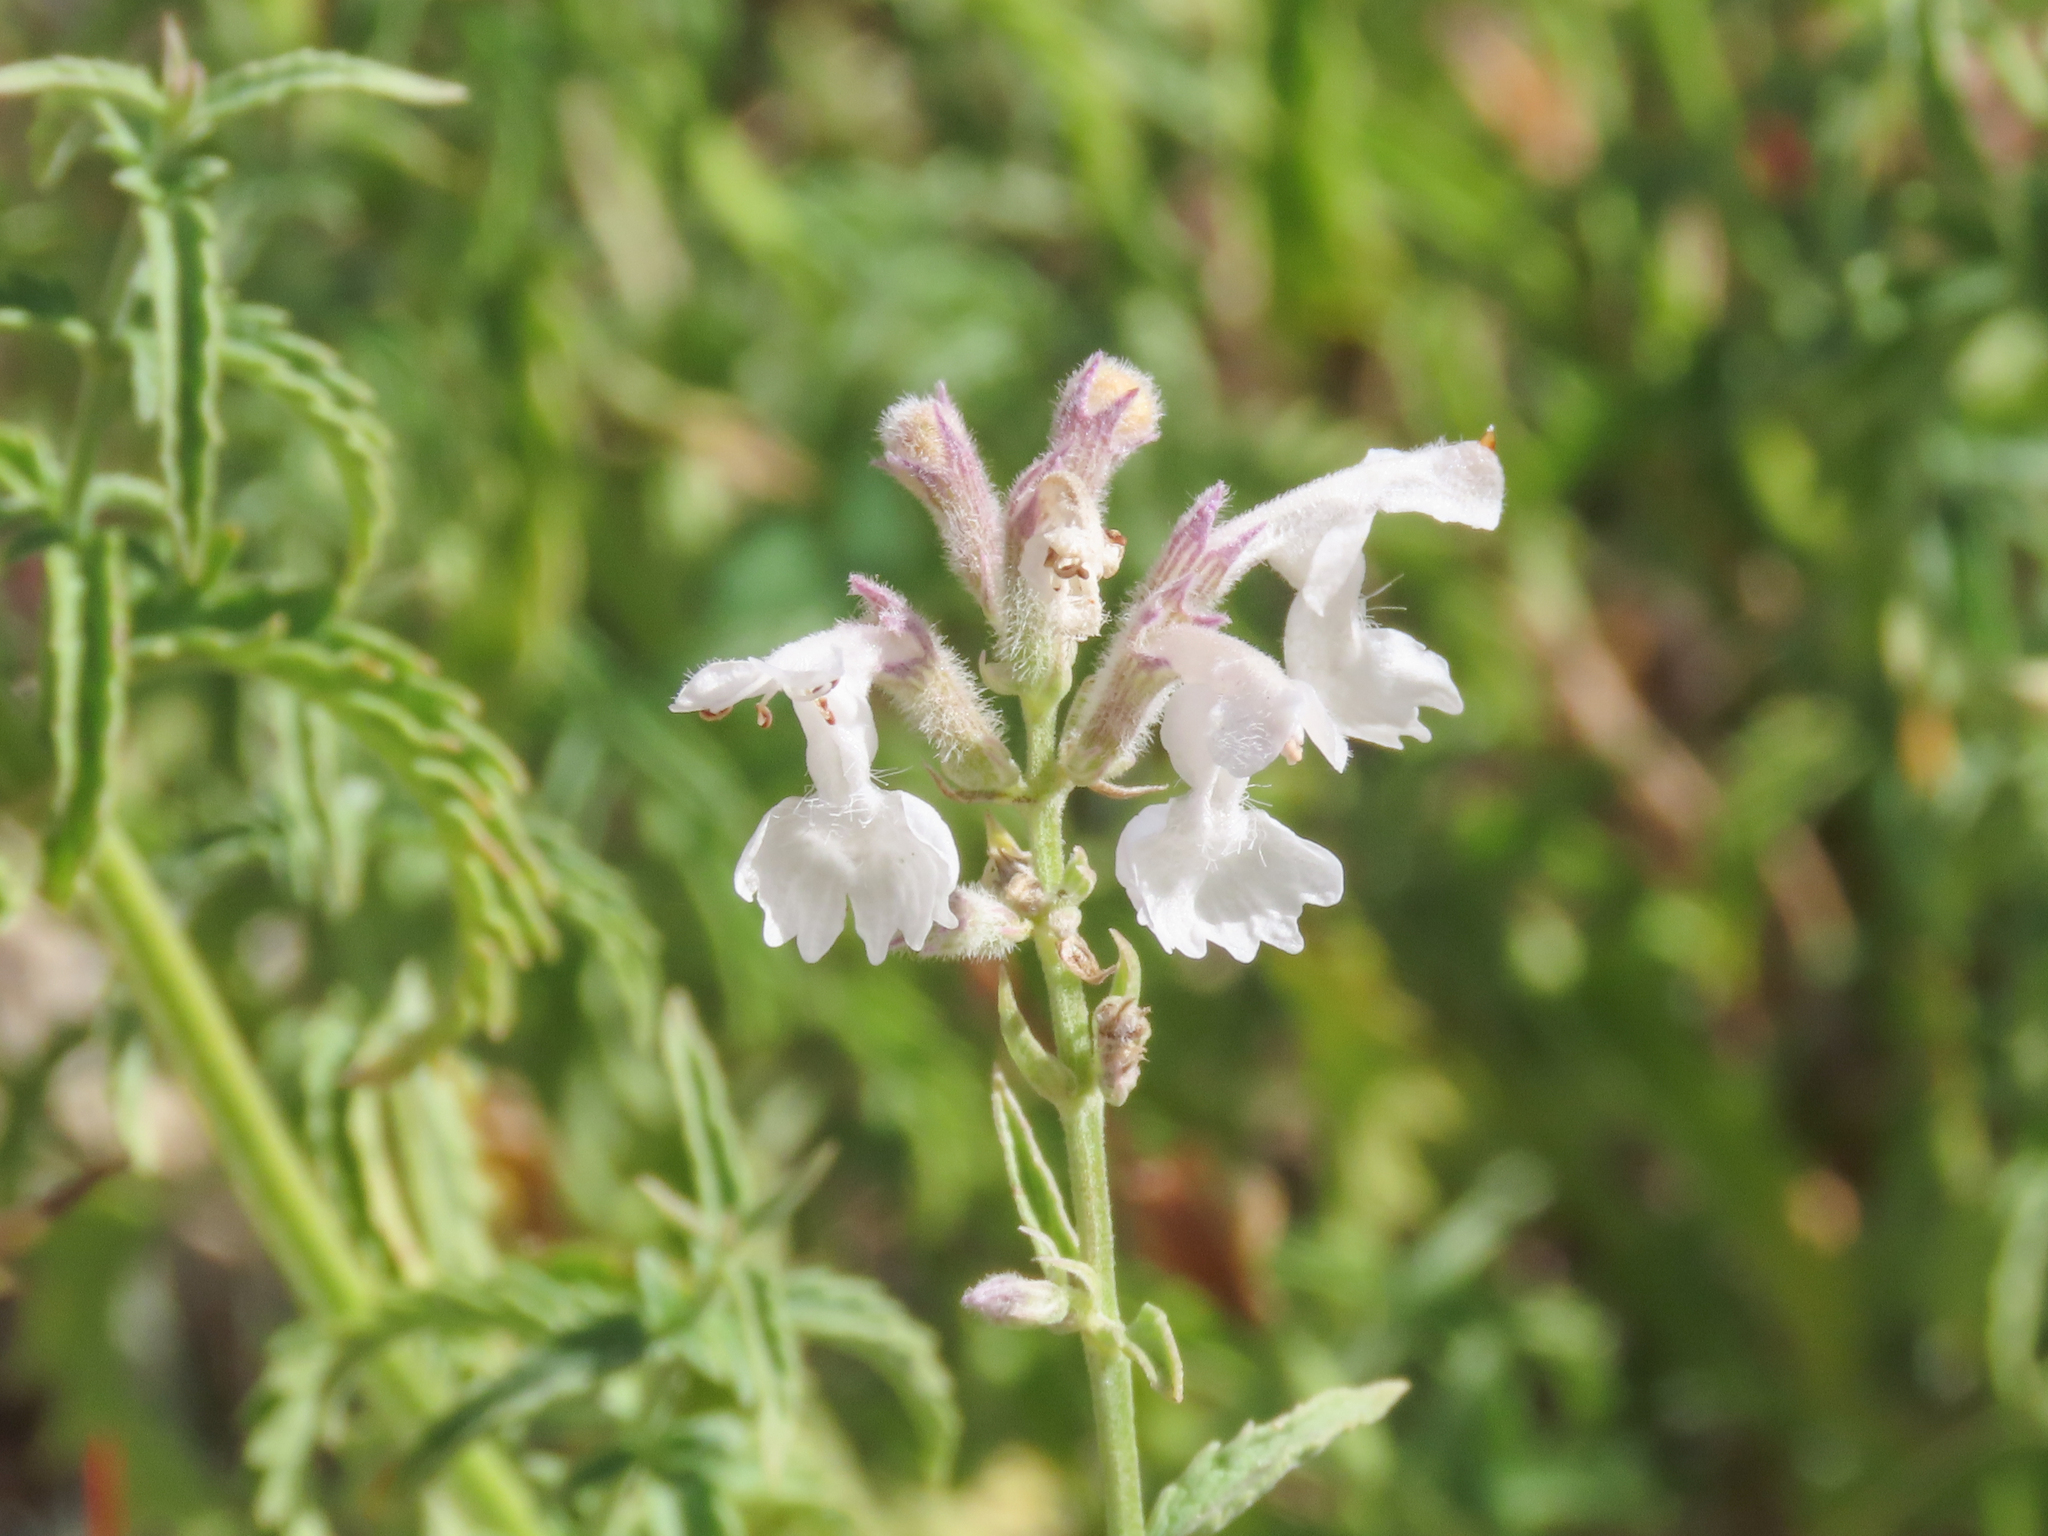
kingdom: Plantae
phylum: Tracheophyta
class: Magnoliopsida
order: Lamiales
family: Lamiaceae
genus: Nepeta
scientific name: Nepeta nepetella
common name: Lesser catmint
